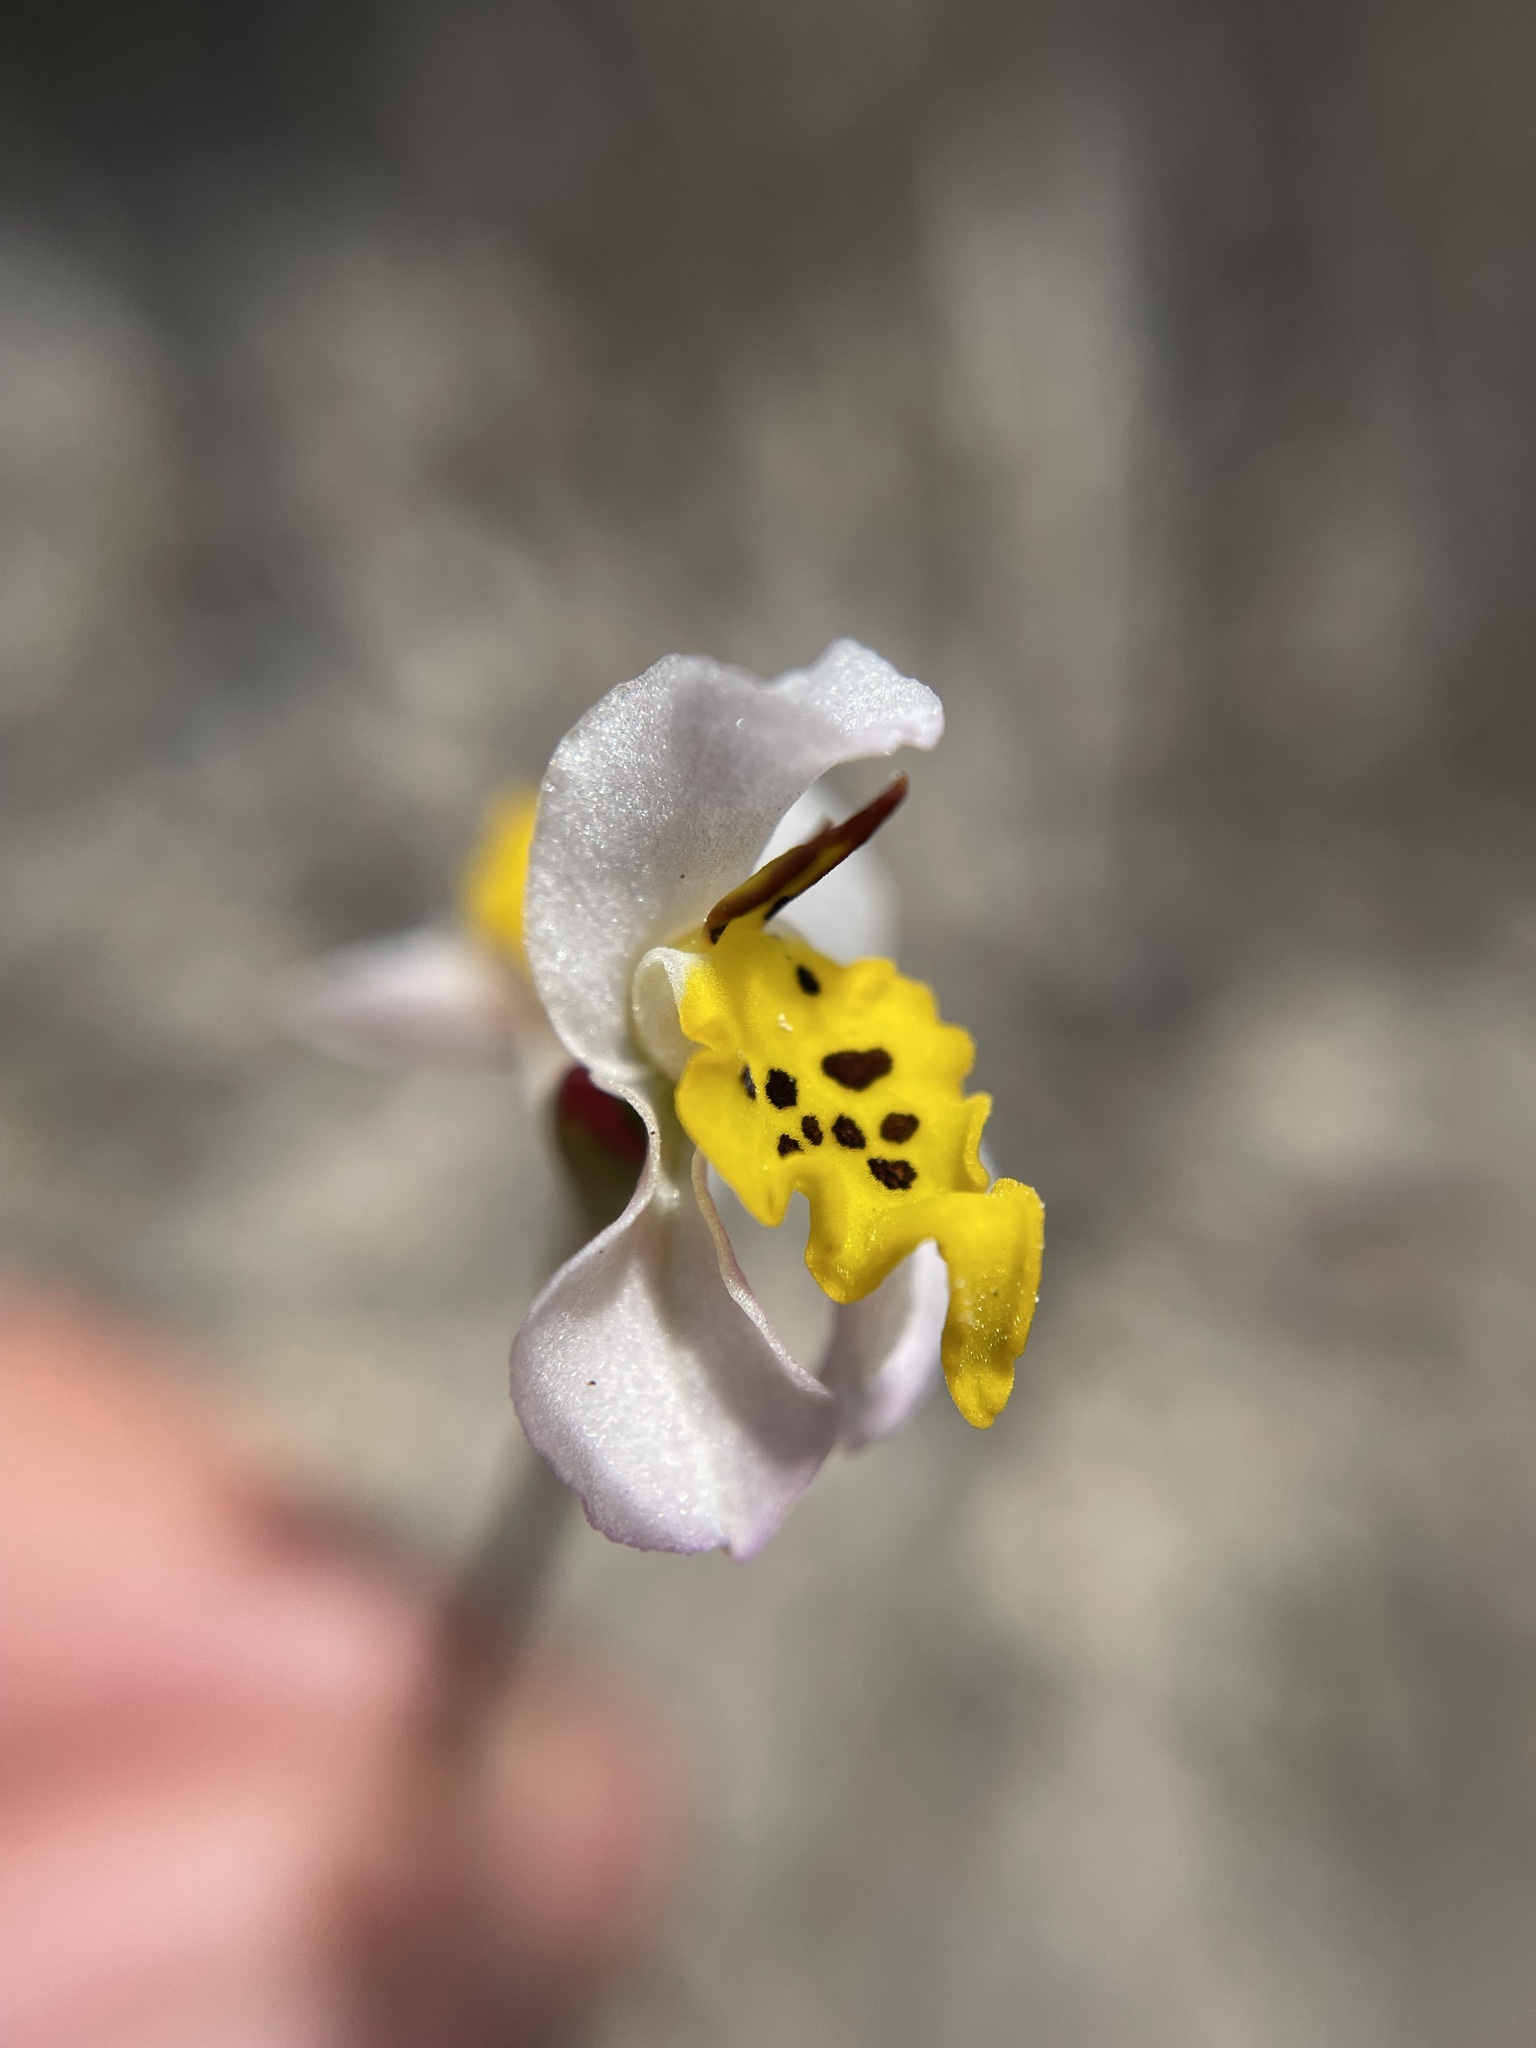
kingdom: Plantae
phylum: Tracheophyta
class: Liliopsida
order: Asparagales
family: Orchidaceae
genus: Disa
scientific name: Disa flexuosa
